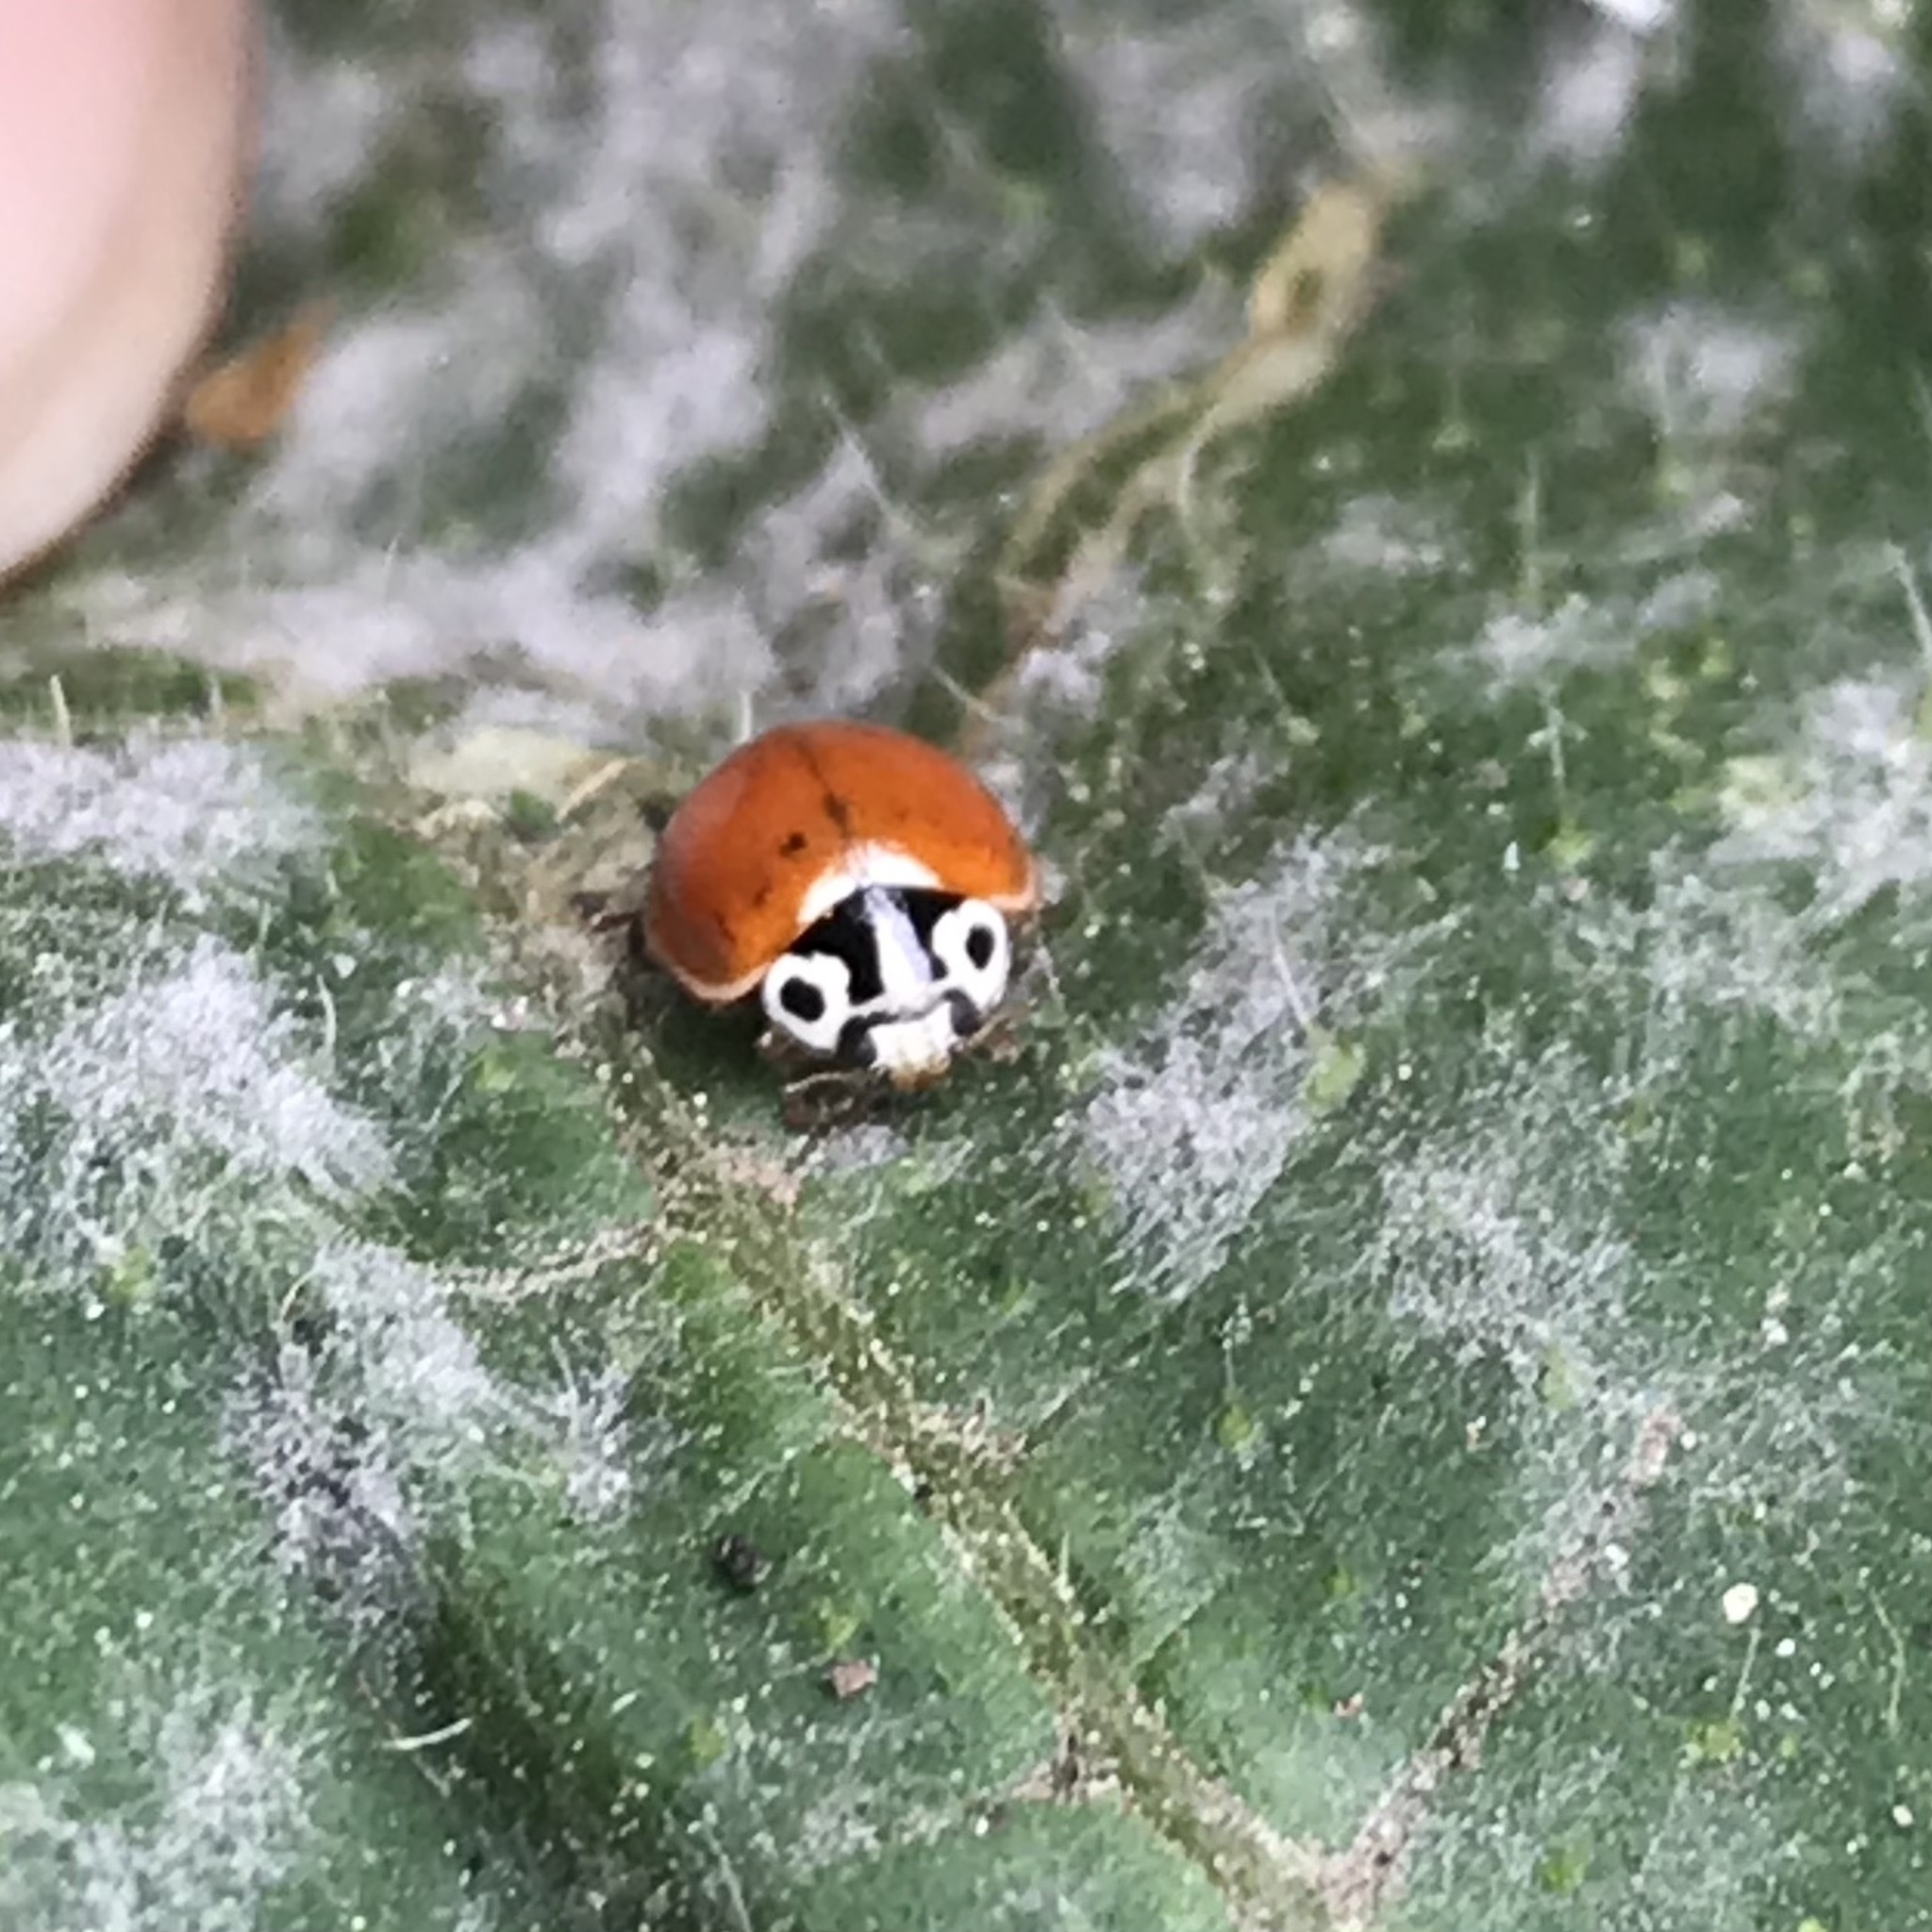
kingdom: Animalia
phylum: Arthropoda
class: Insecta
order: Coleoptera
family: Coccinellidae
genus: Cycloneda
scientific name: Cycloneda polita
